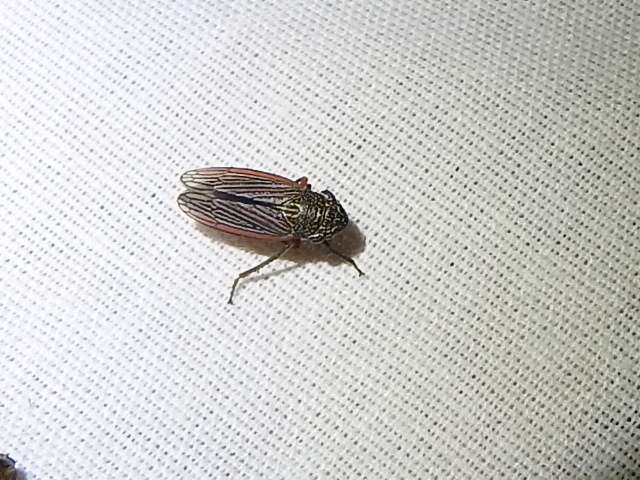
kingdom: Animalia
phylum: Arthropoda
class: Insecta
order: Hemiptera
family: Cicadellidae
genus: Cuerna
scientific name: Cuerna costalis
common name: Lateral-lined sharpshooter
